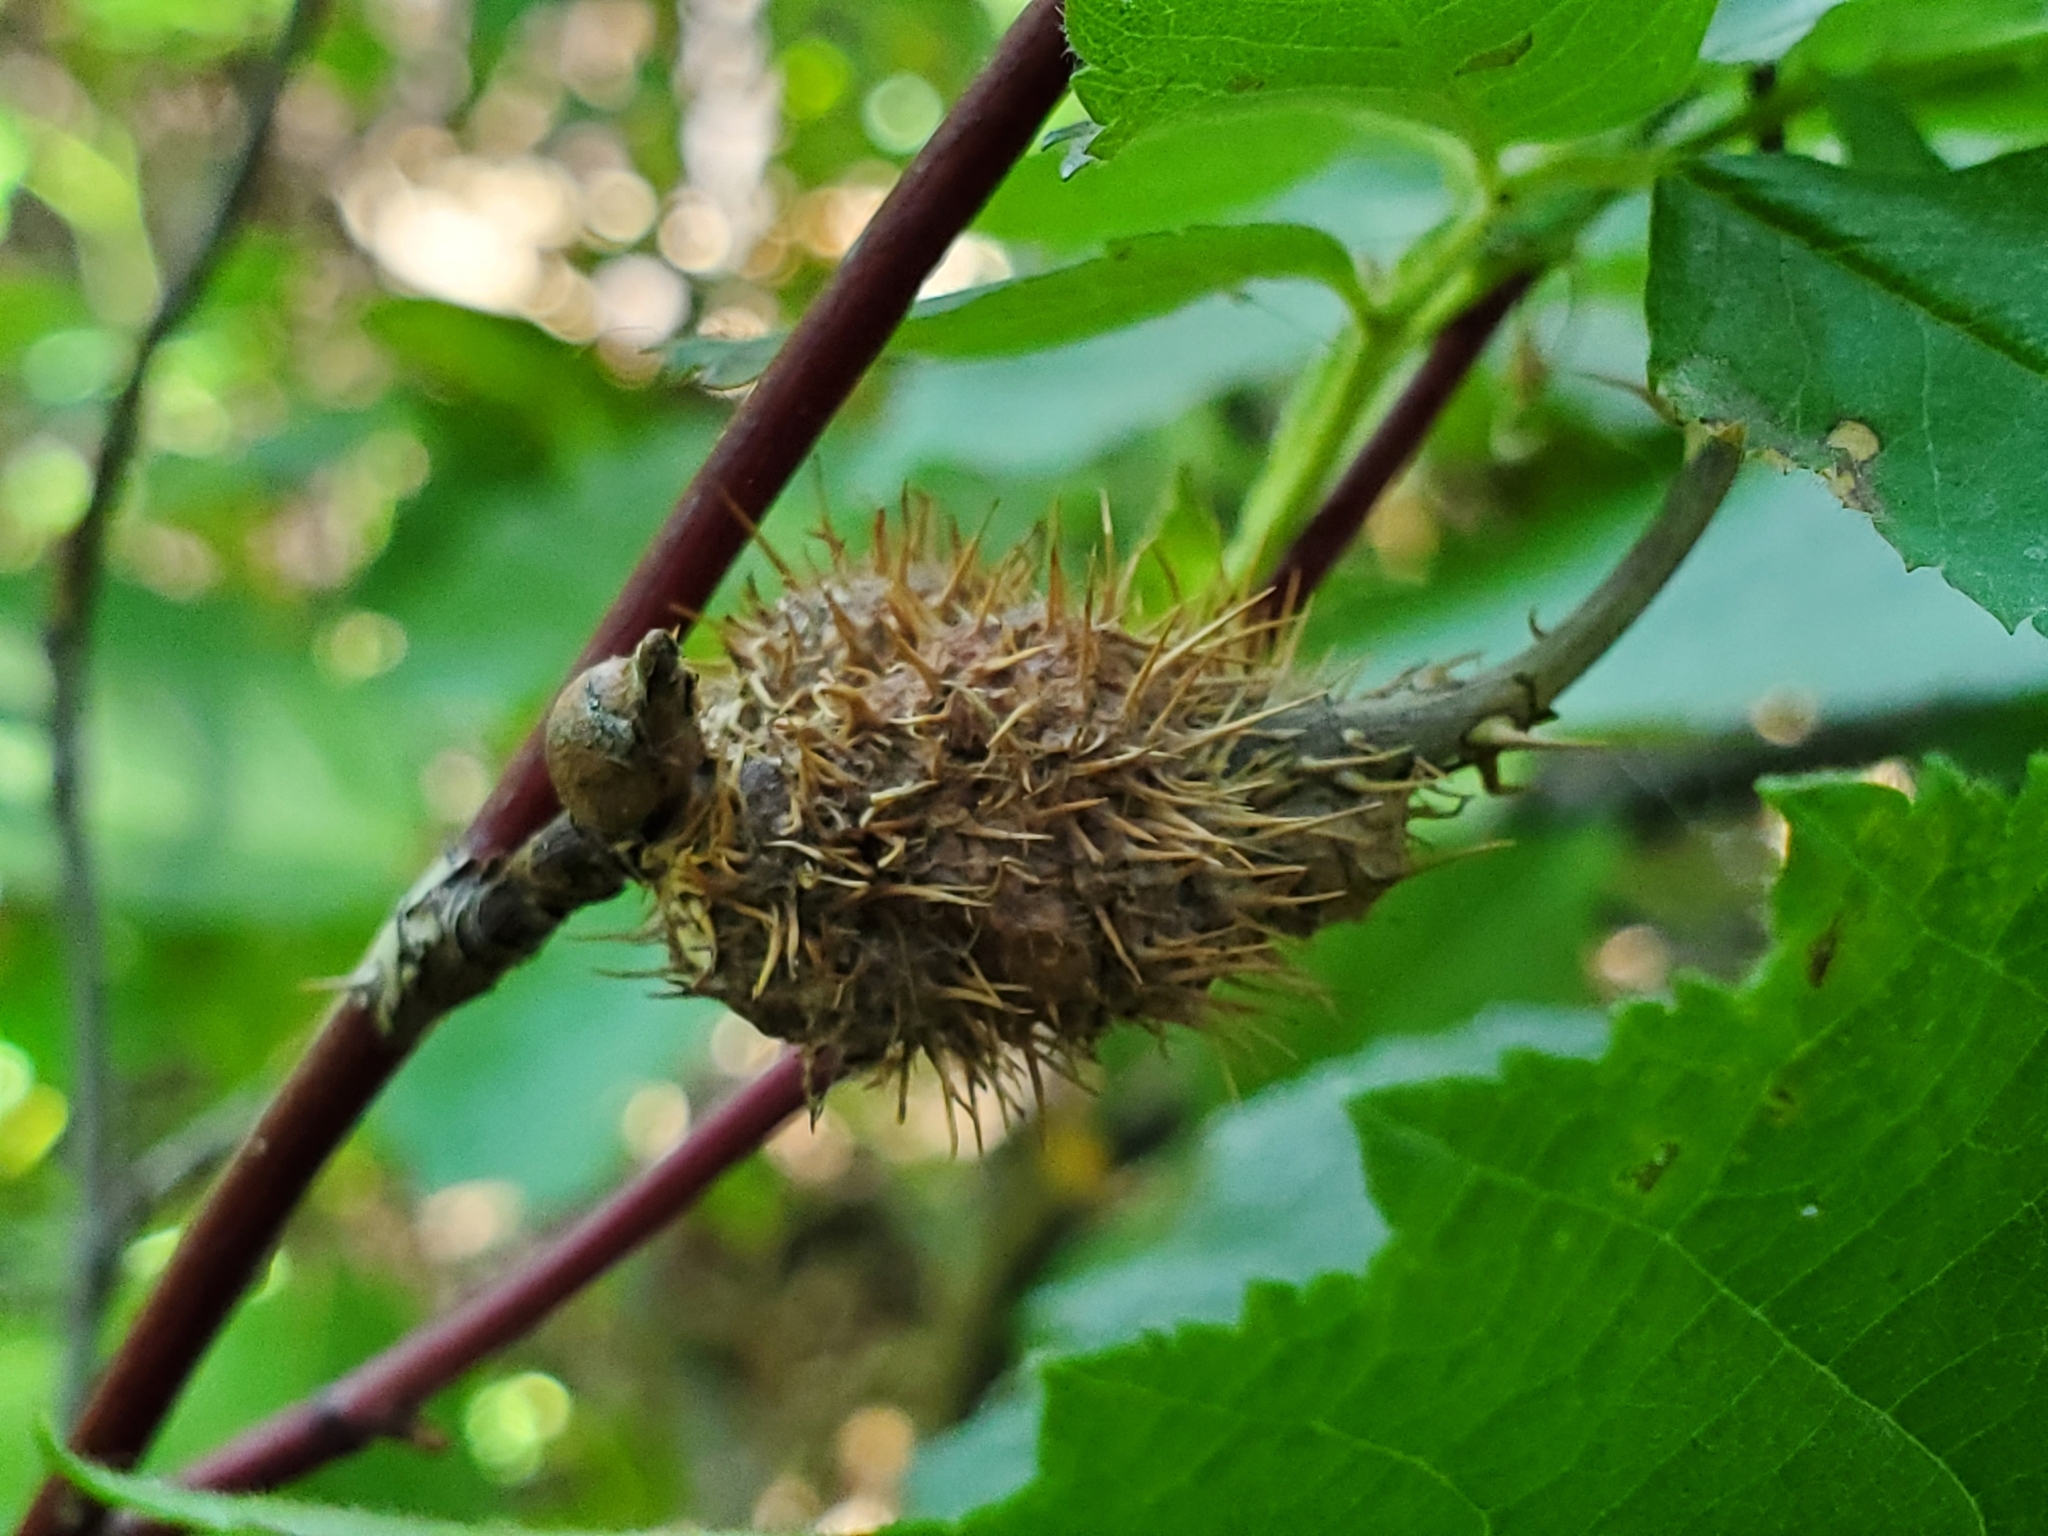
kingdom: Animalia
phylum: Arthropoda
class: Insecta
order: Hymenoptera
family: Cynipidae
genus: Diplolepis
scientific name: Diplolepis triforma
